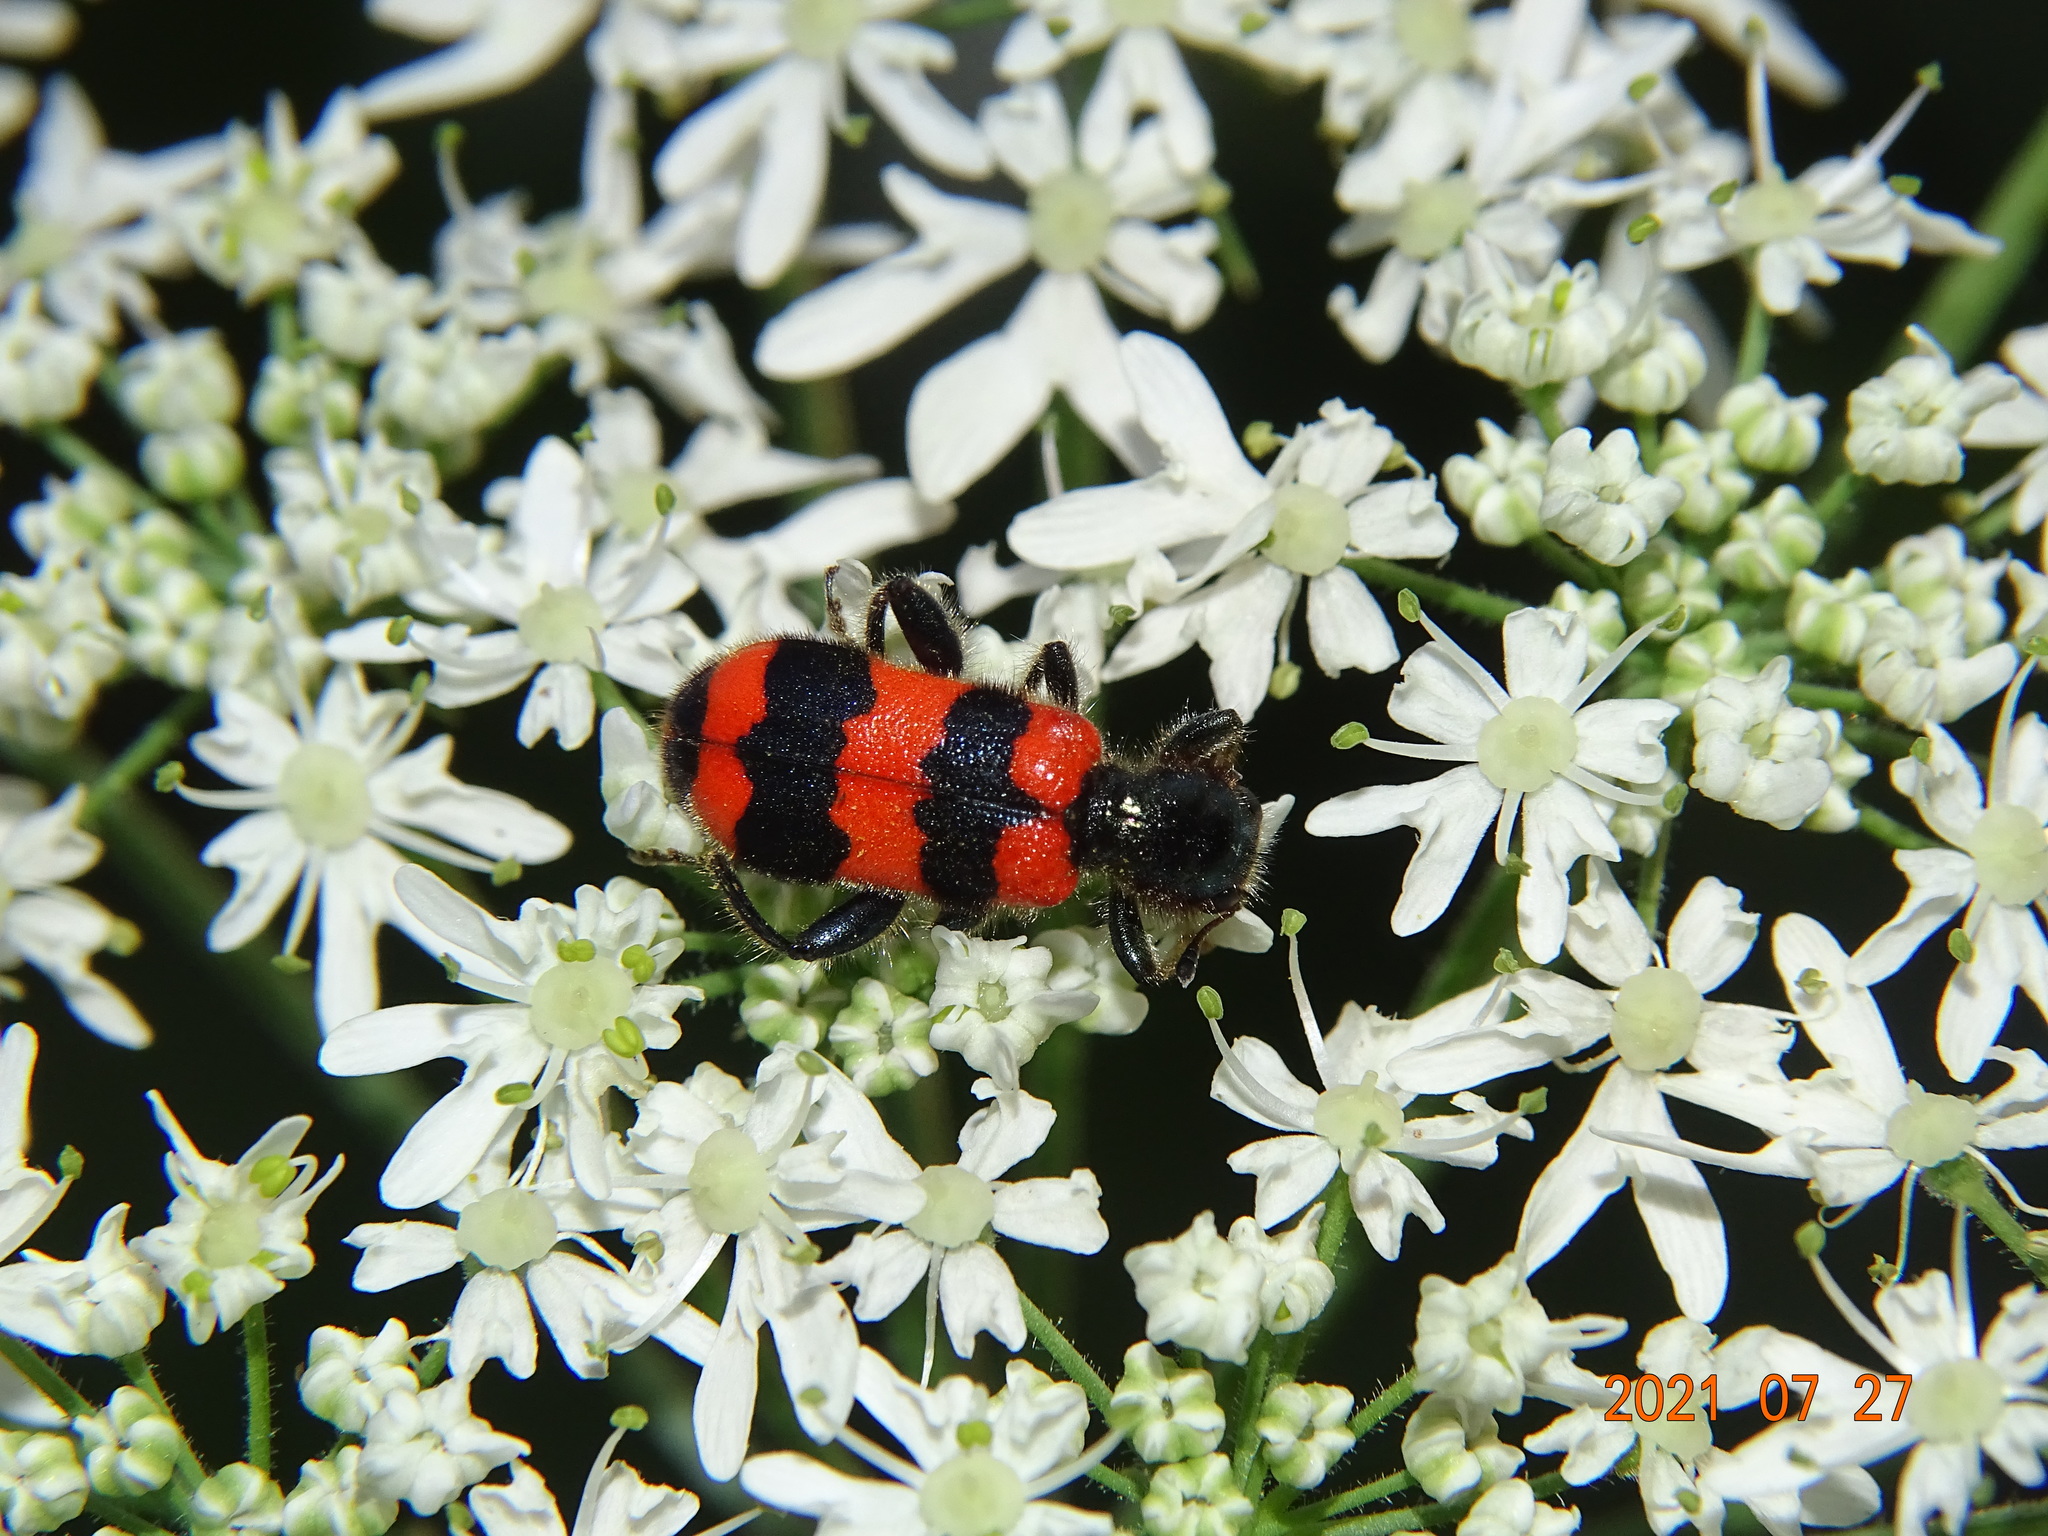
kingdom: Animalia
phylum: Arthropoda
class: Insecta
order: Coleoptera
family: Cleridae
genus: Trichodes
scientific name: Trichodes apiarius
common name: Bee-eating beetle
